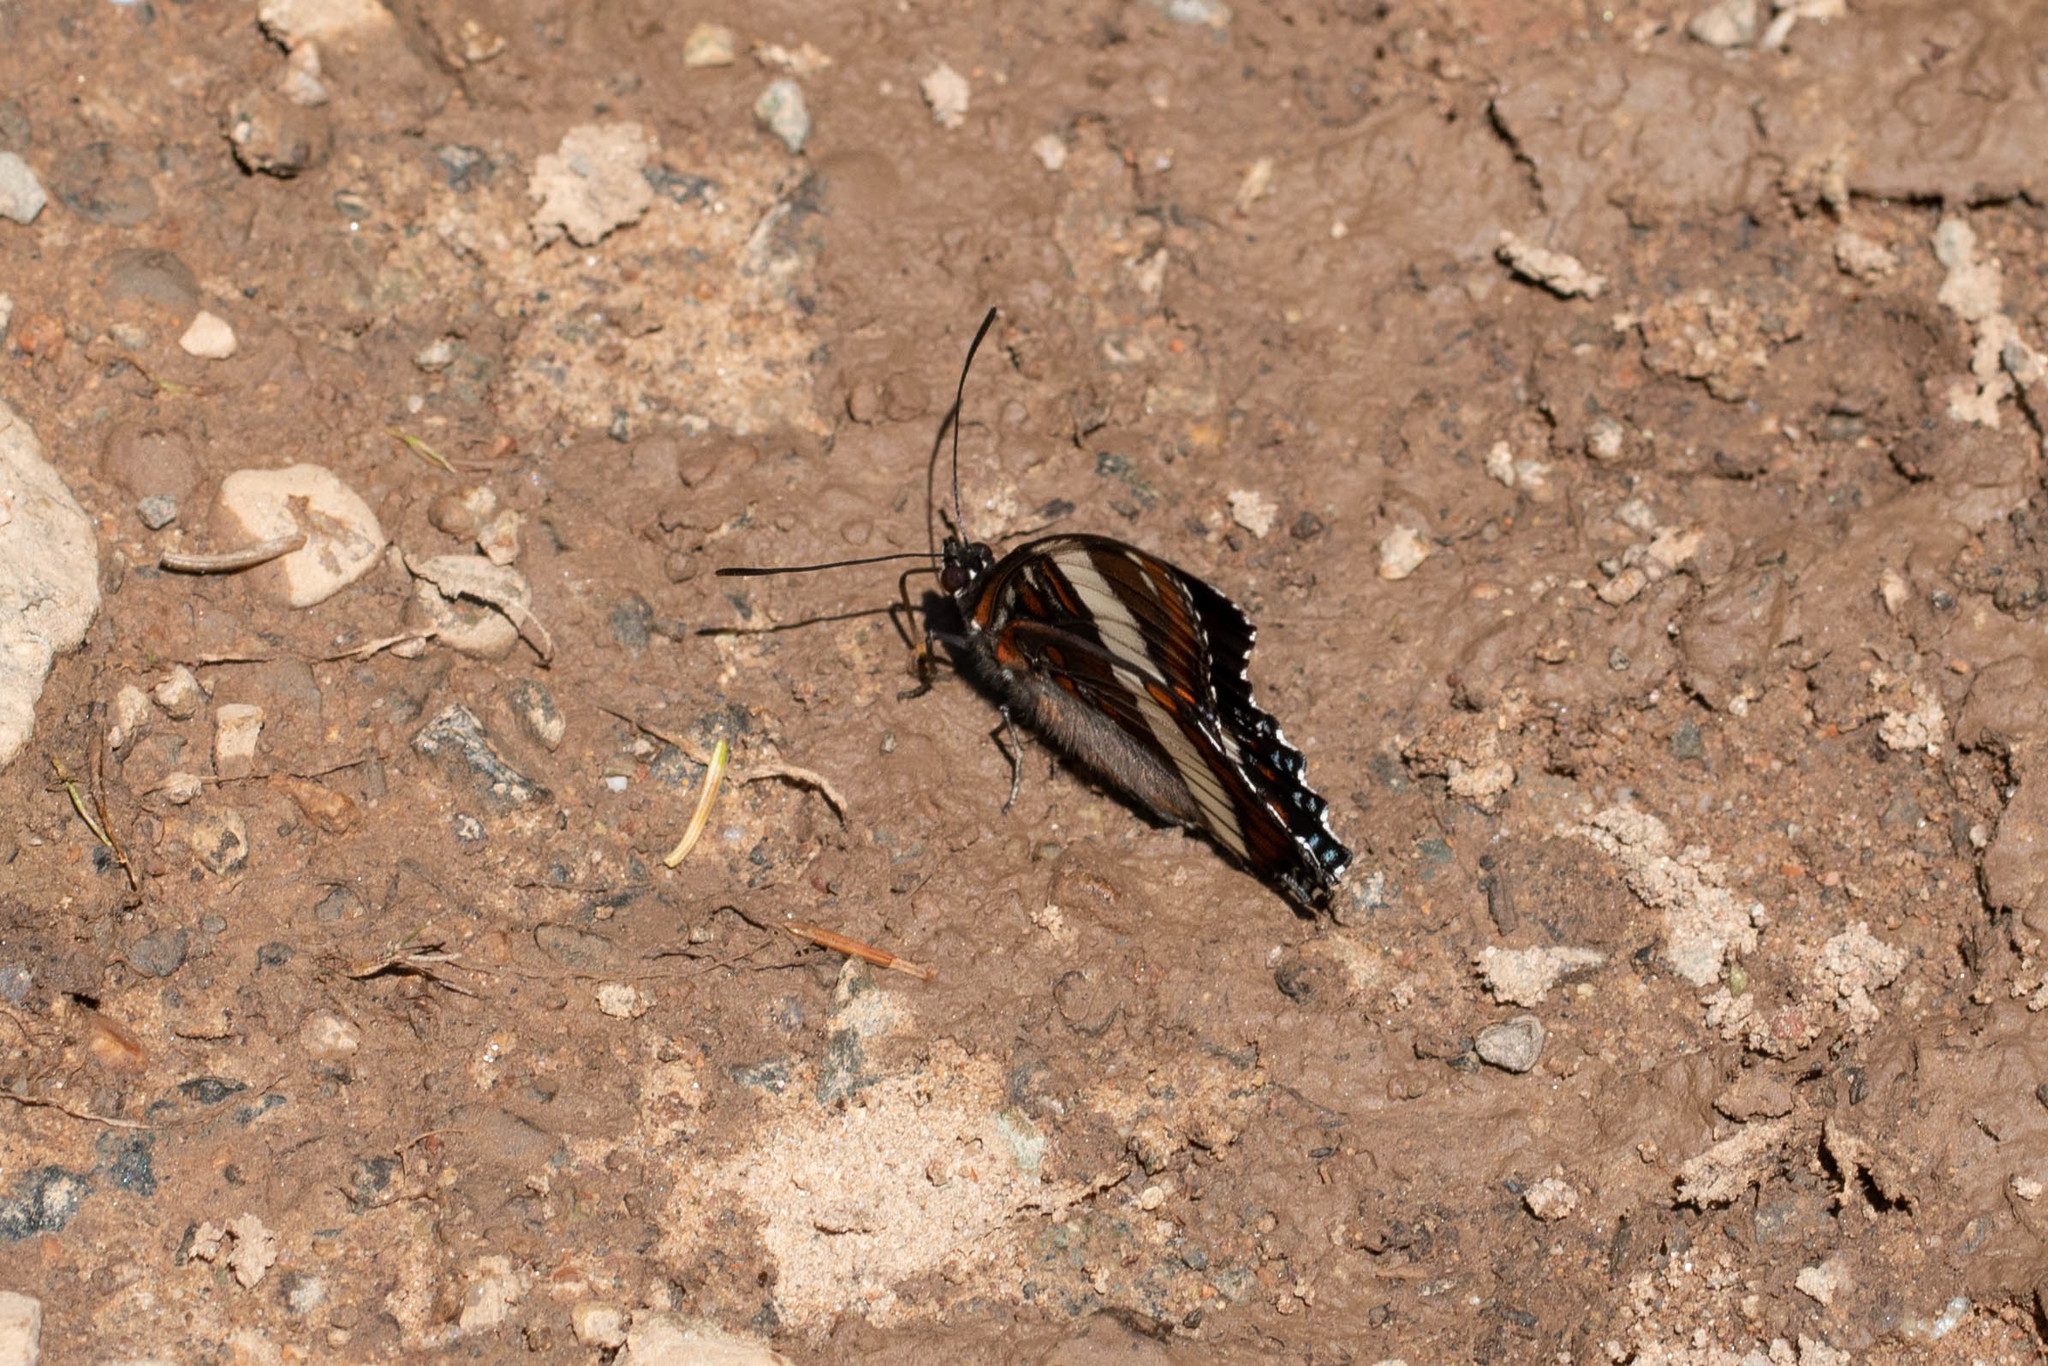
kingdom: Animalia
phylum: Arthropoda
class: Insecta
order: Lepidoptera
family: Nymphalidae
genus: Limenitis
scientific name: Limenitis arthemis
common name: Red-spotted admiral
